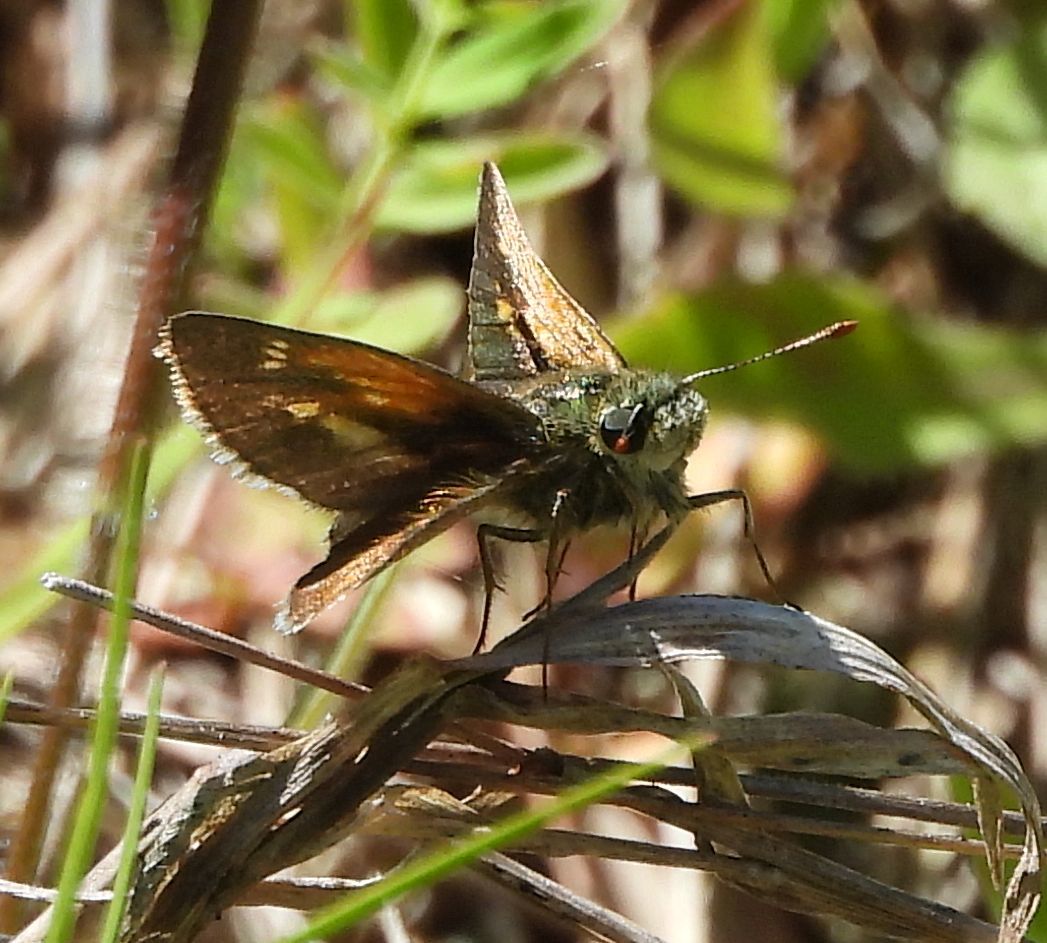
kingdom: Animalia
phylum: Arthropoda
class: Insecta
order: Lepidoptera
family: Hesperiidae
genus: Polites
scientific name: Polites themistocles
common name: Tawny-edged skipper
